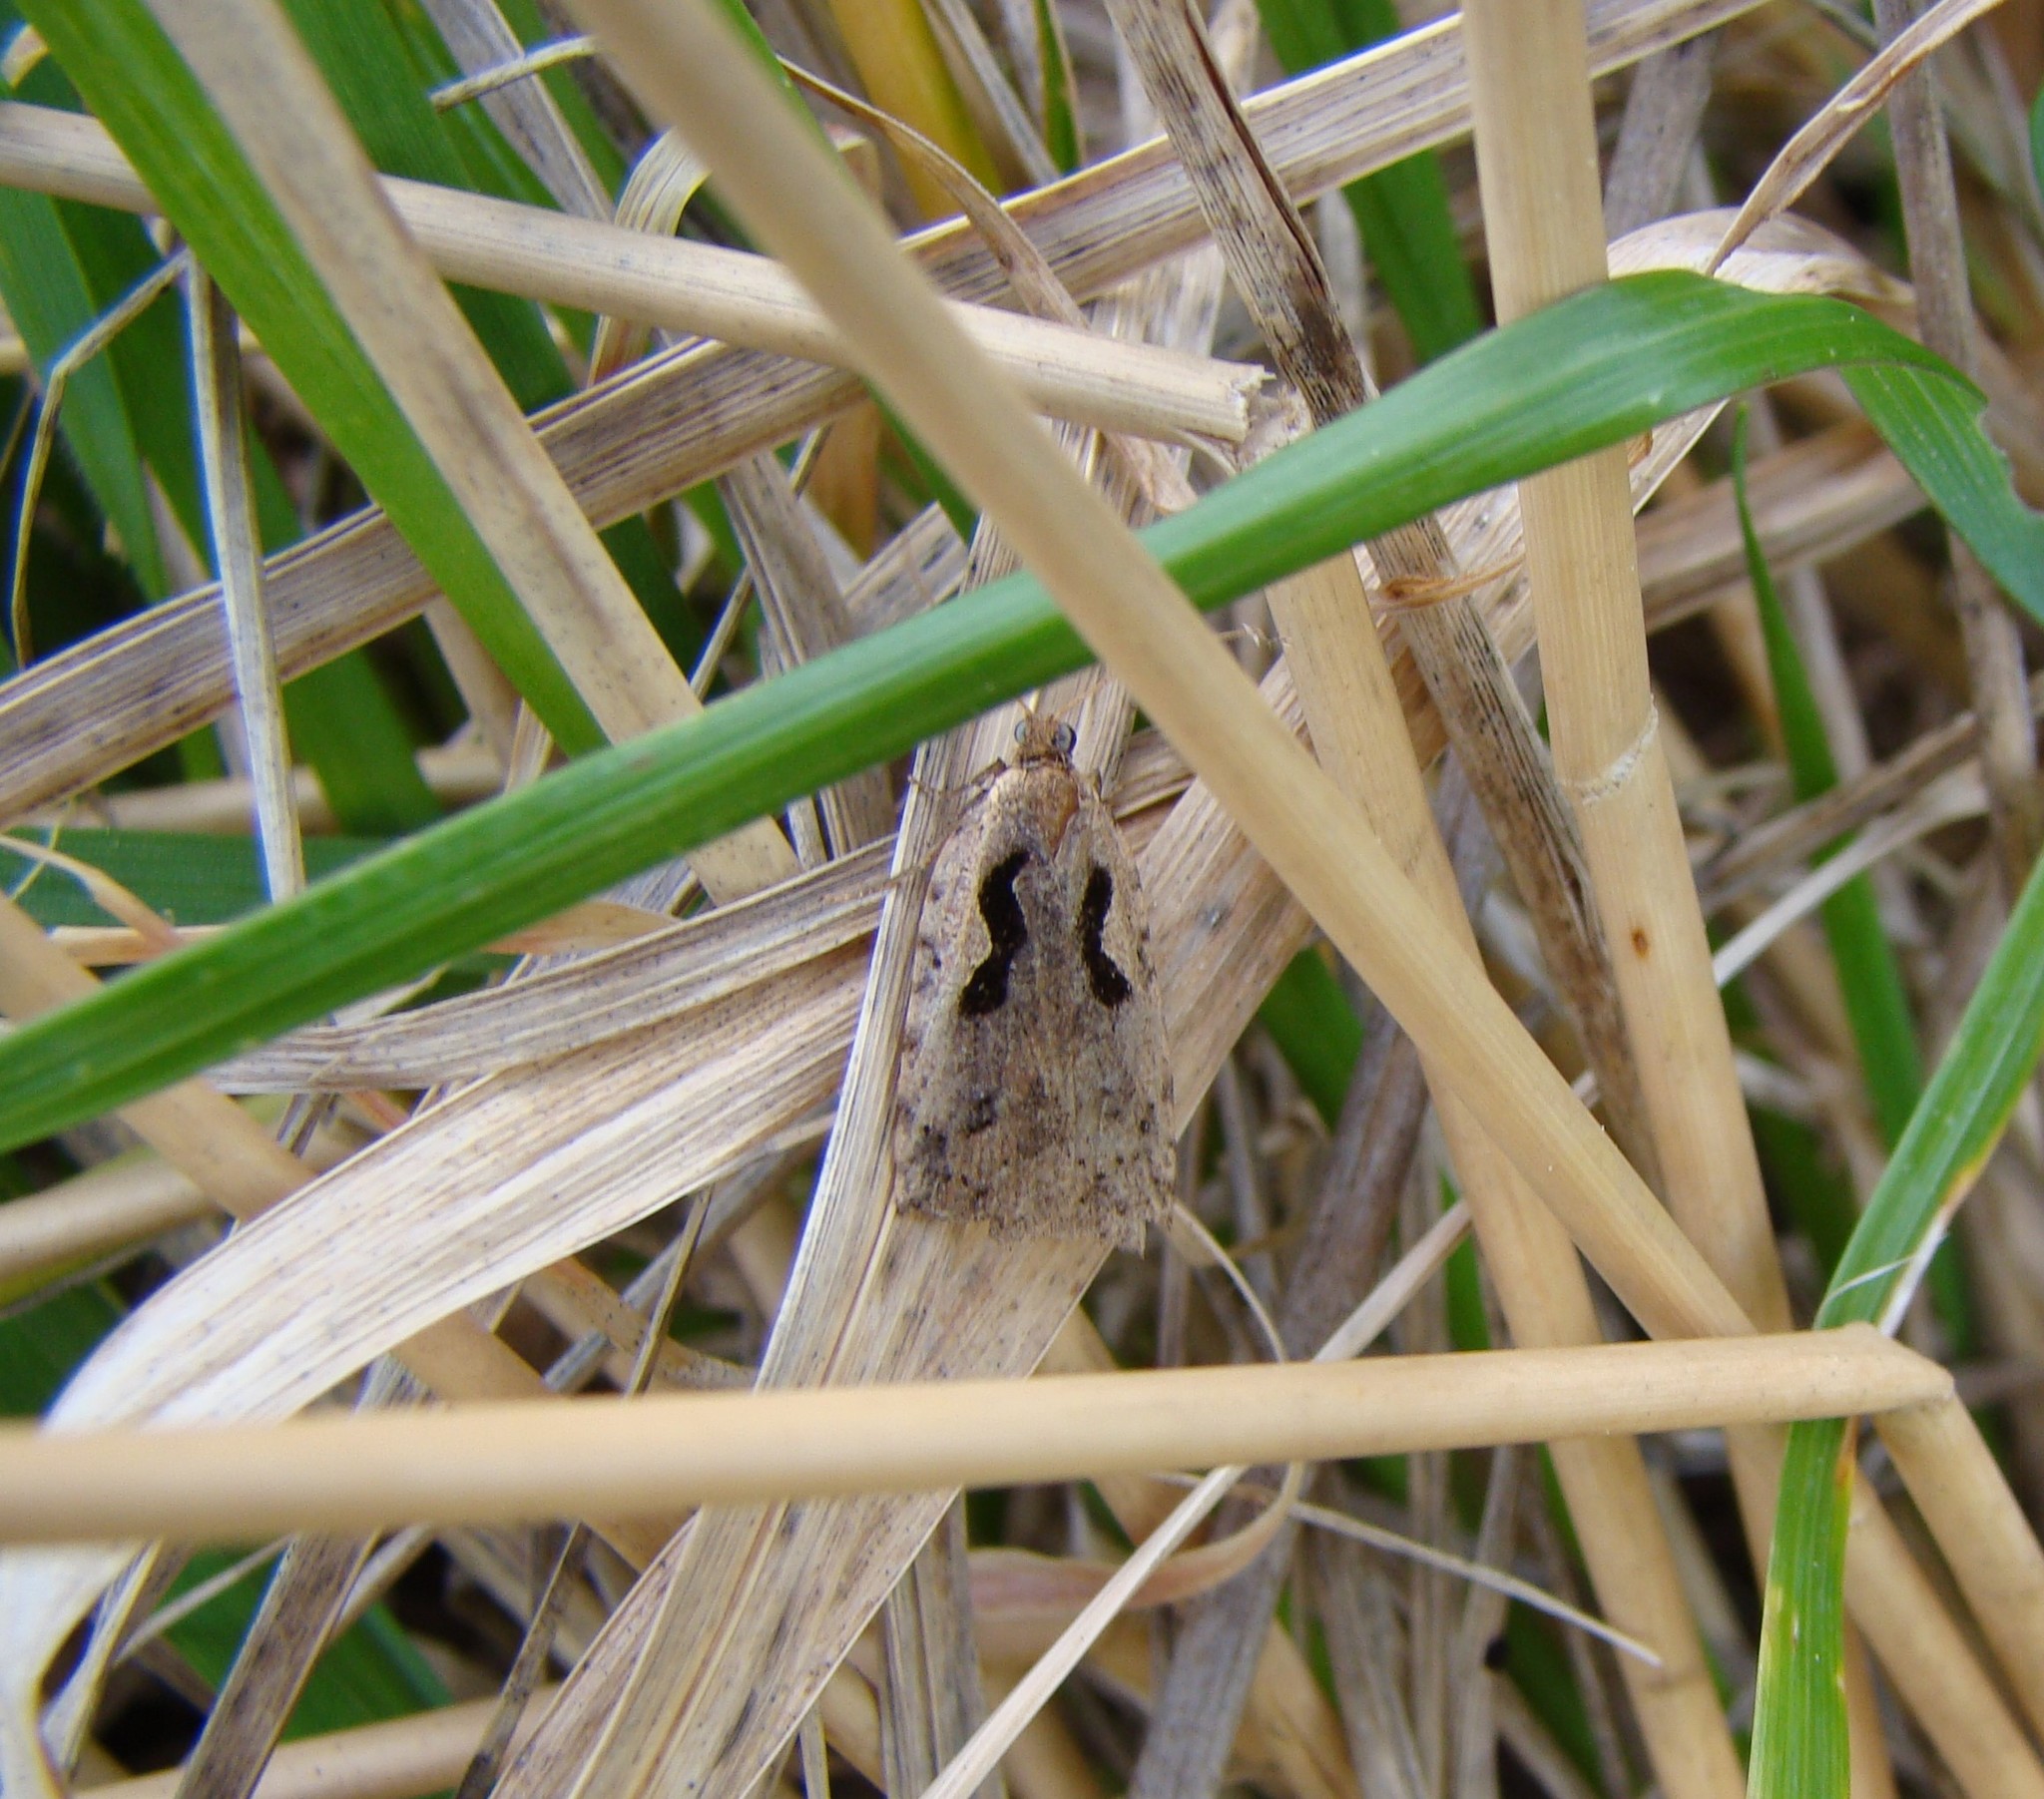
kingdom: Animalia
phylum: Arthropoda
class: Insecta
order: Lepidoptera
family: Tortricidae
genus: Cnephasia
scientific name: Cnephasia jactatana
